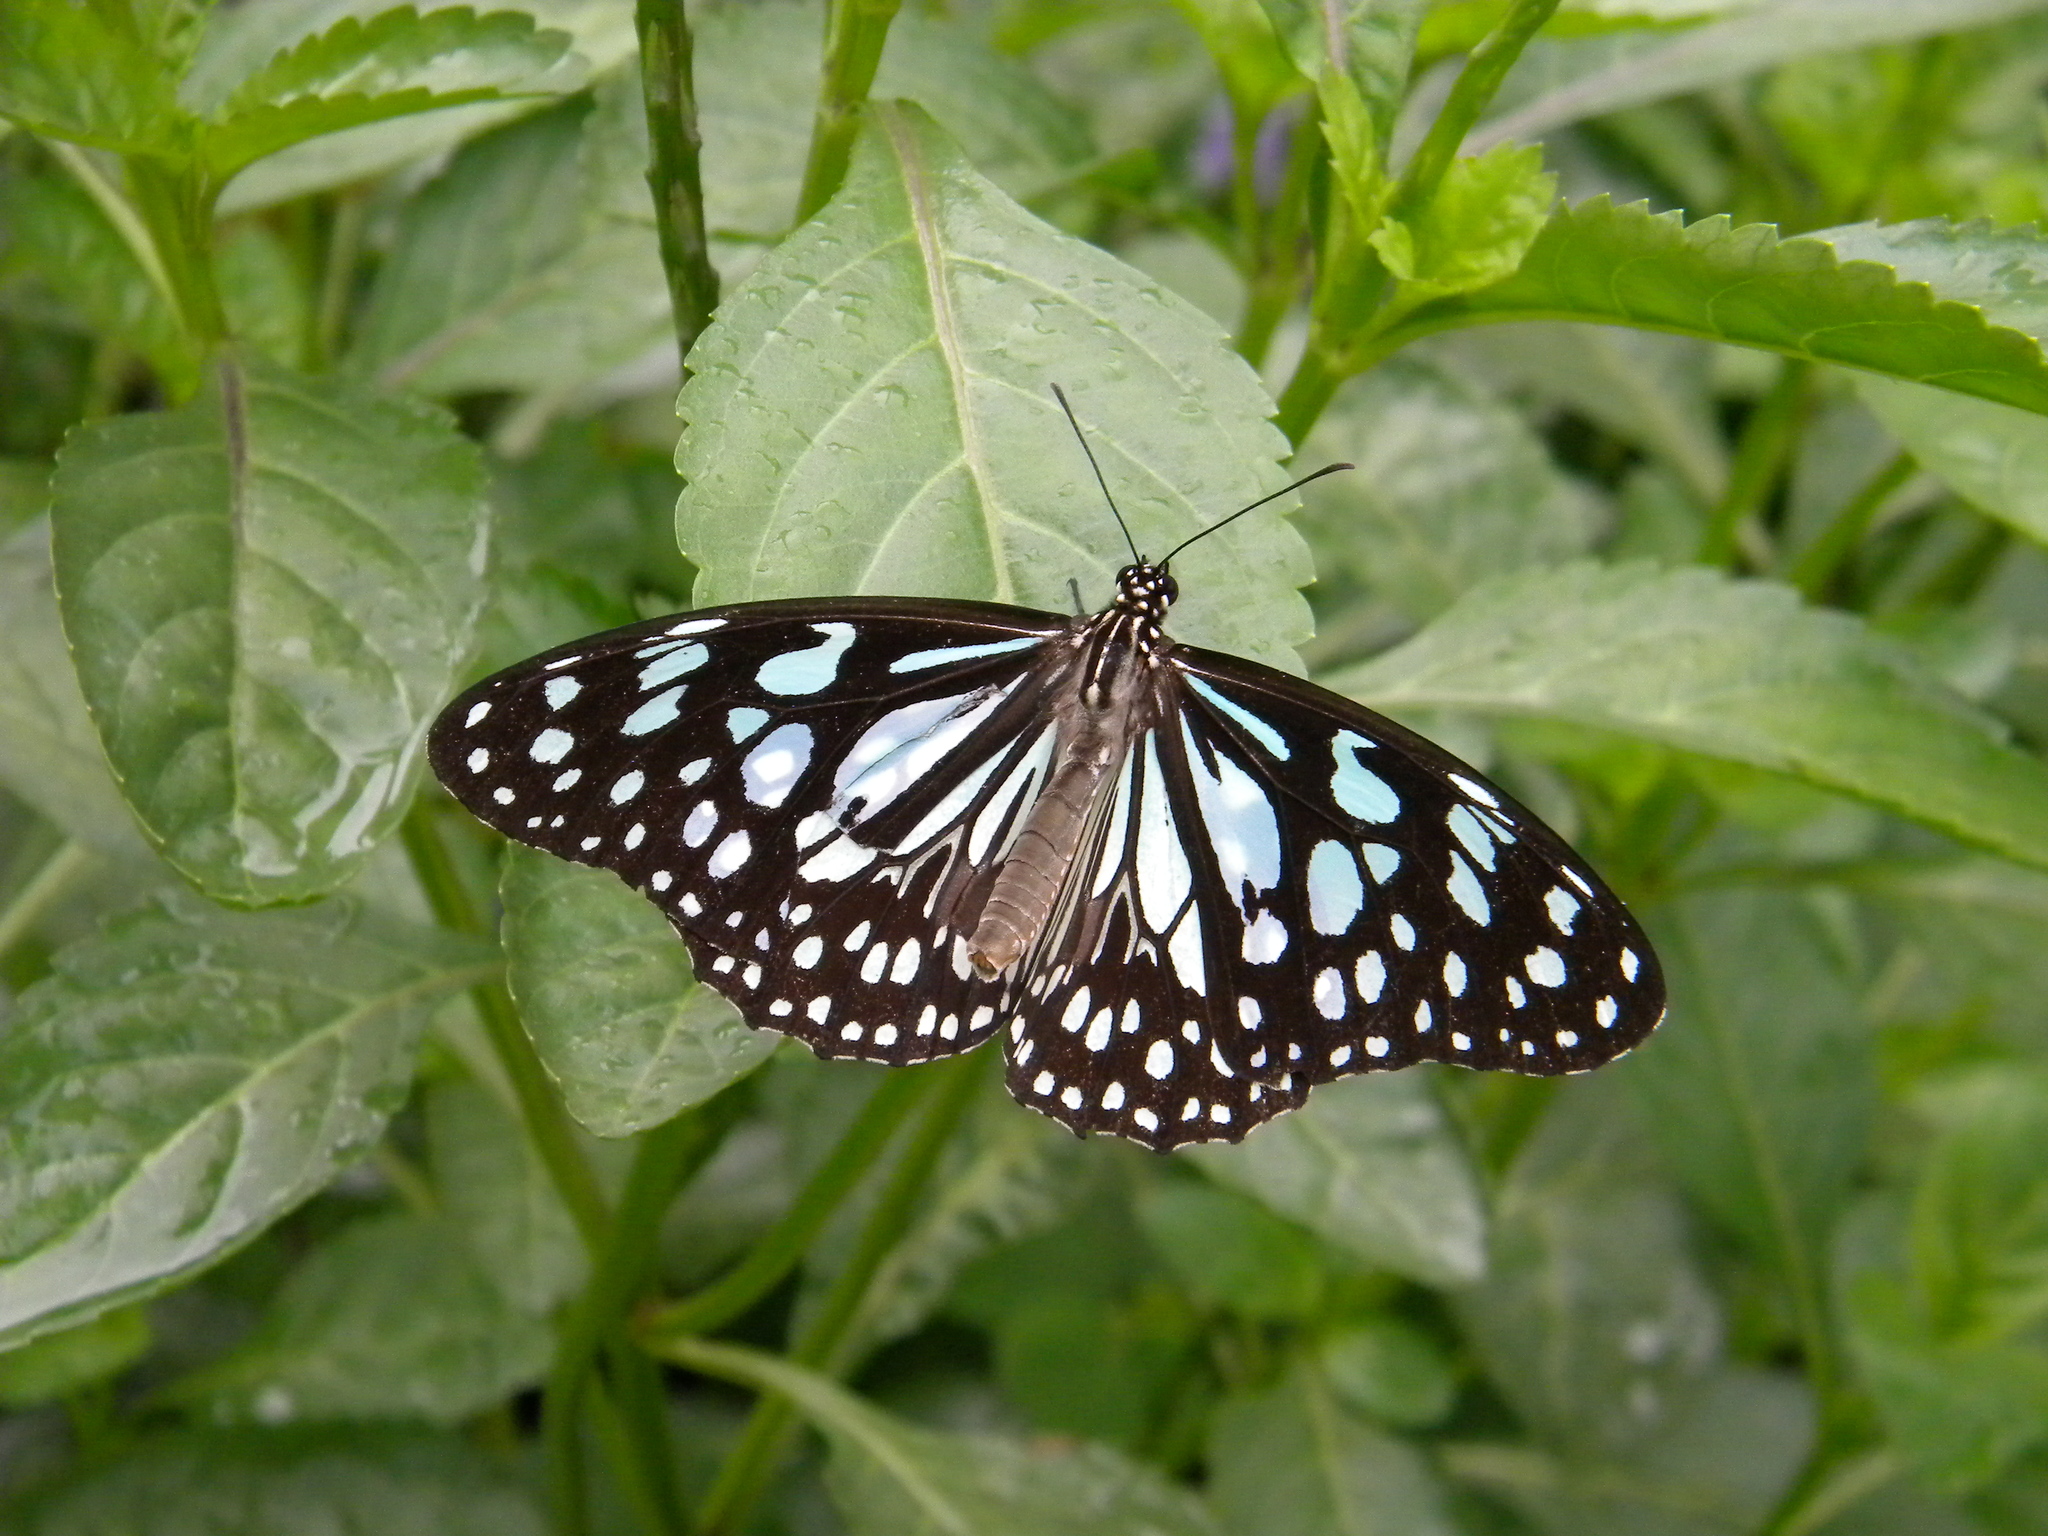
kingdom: Animalia
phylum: Arthropoda
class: Insecta
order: Lepidoptera
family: Nymphalidae
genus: Tirumala
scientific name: Tirumala limniace
